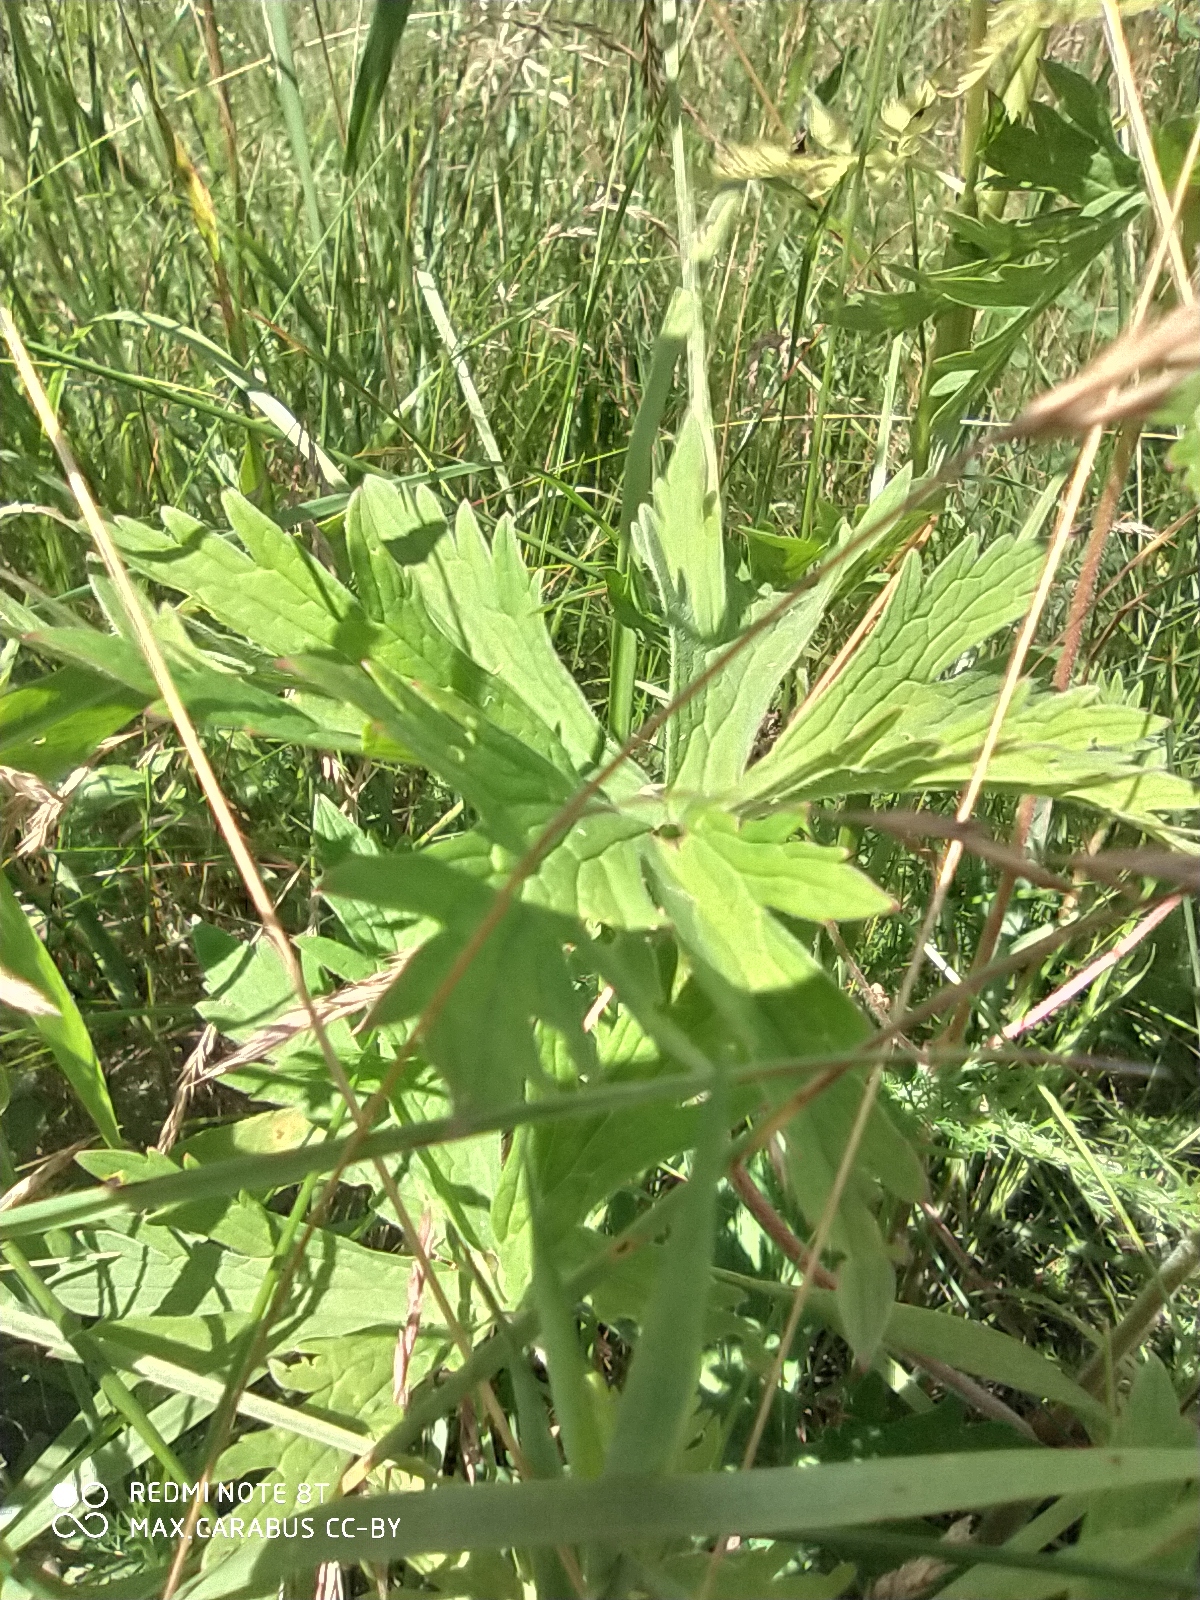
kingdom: Plantae
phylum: Tracheophyta
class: Magnoliopsida
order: Geraniales
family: Geraniaceae
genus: Geranium
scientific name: Geranium pratense
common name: Meadow crane's-bill
